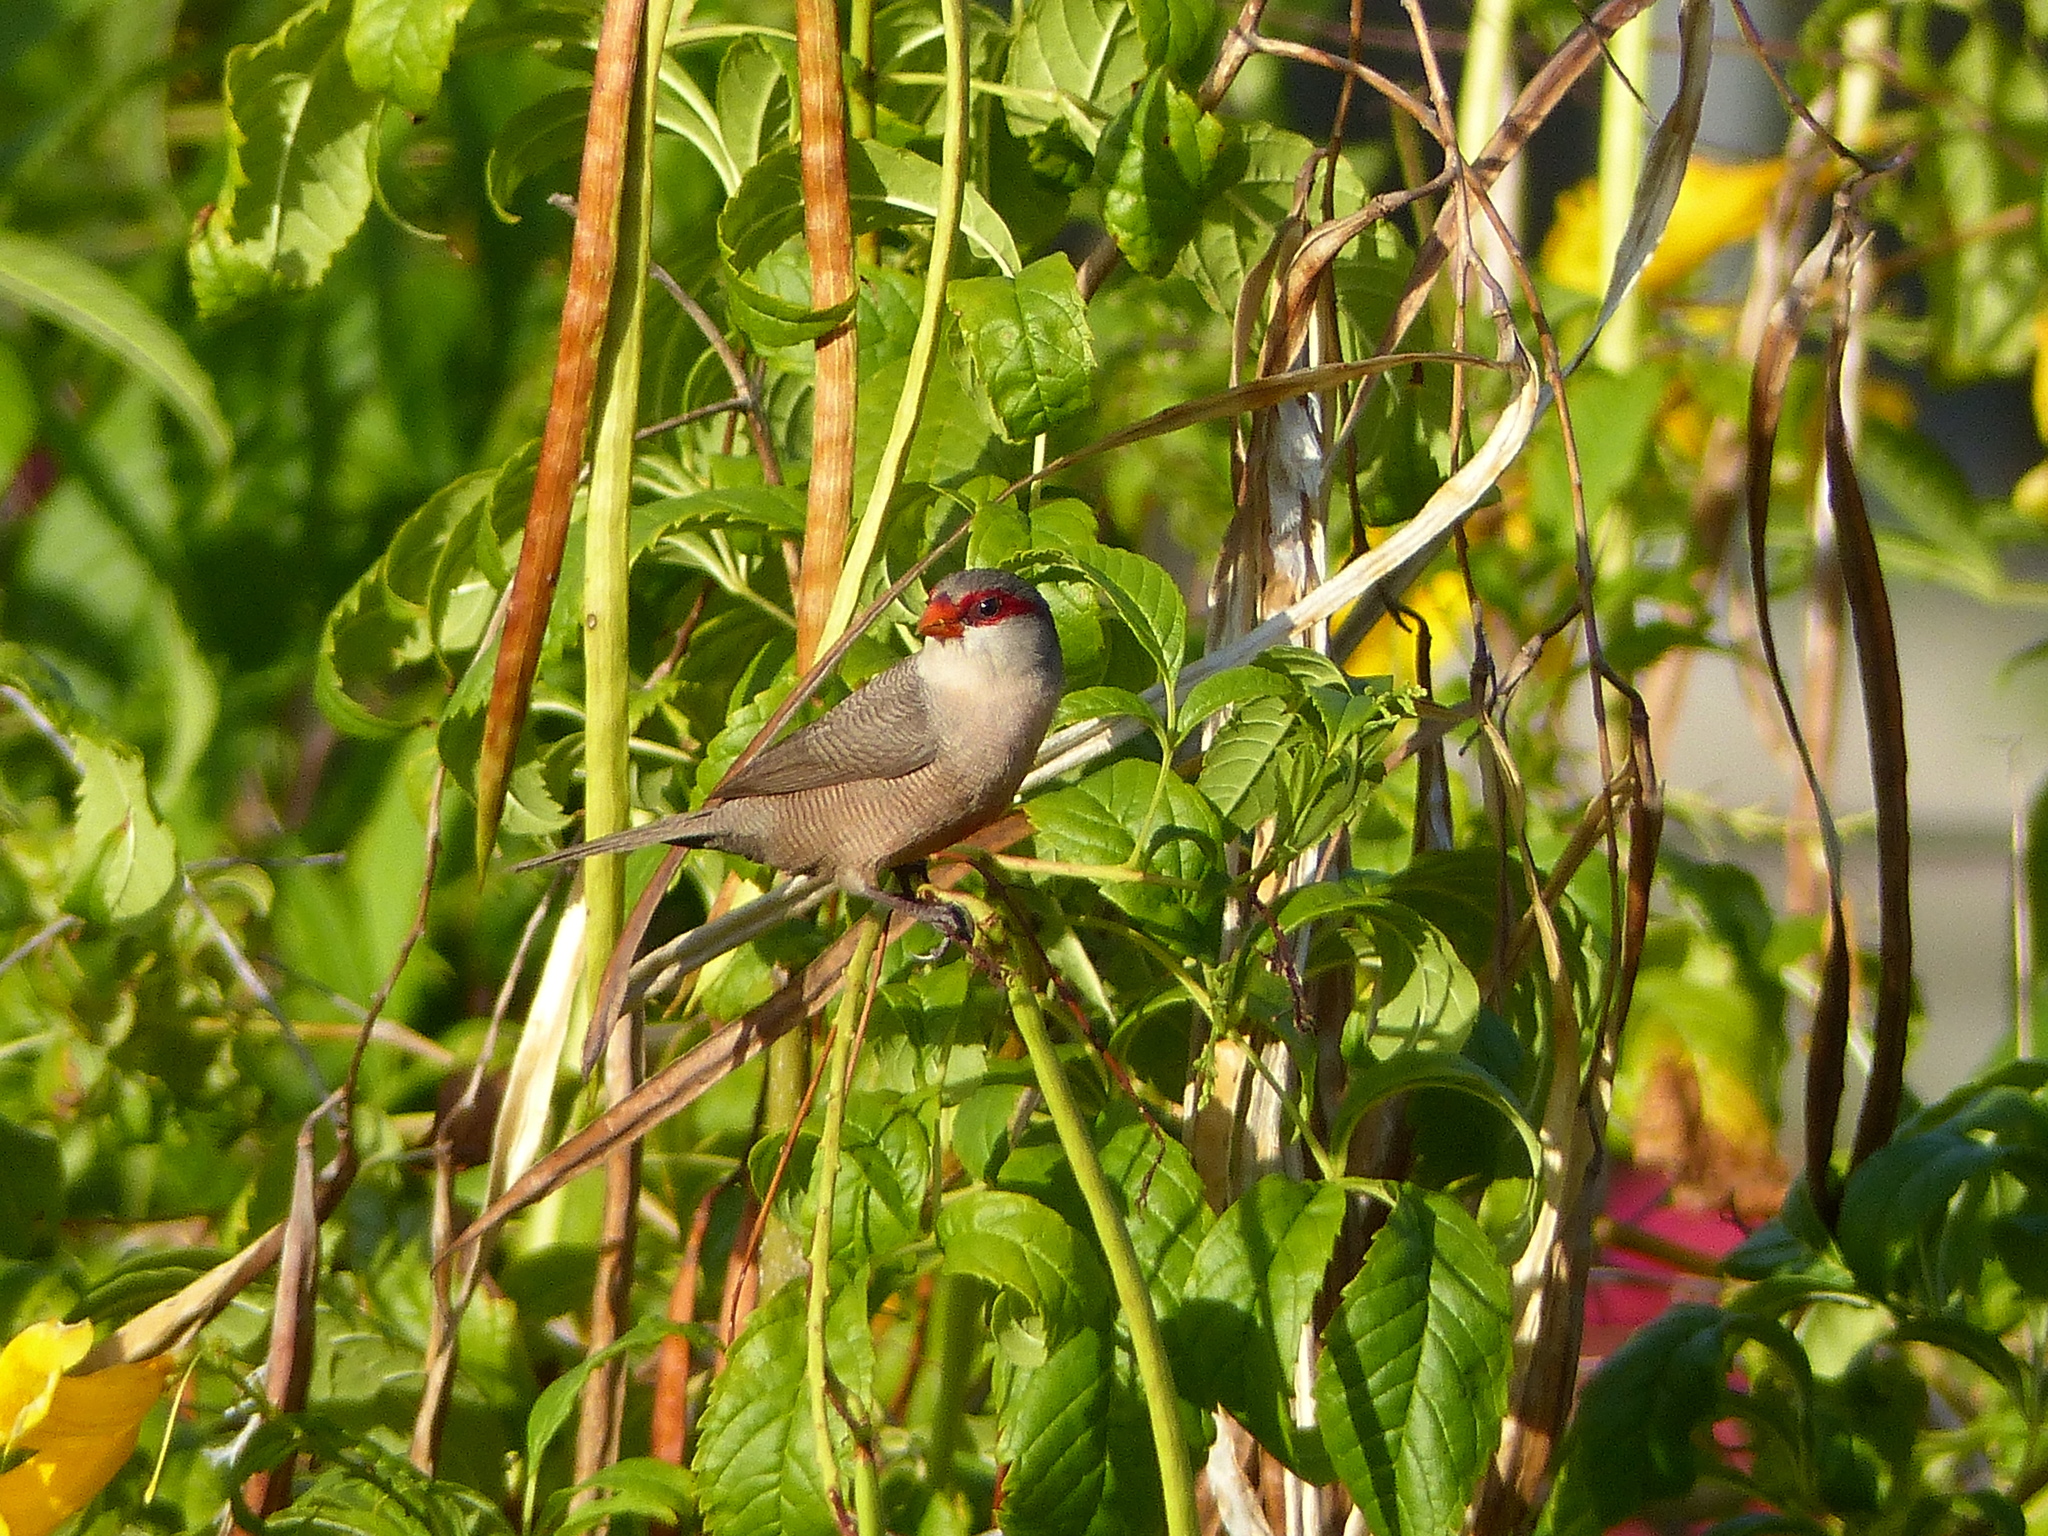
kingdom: Animalia
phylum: Chordata
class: Aves
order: Passeriformes
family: Estrildidae
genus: Estrilda
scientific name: Estrilda astrild
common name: Common waxbill
